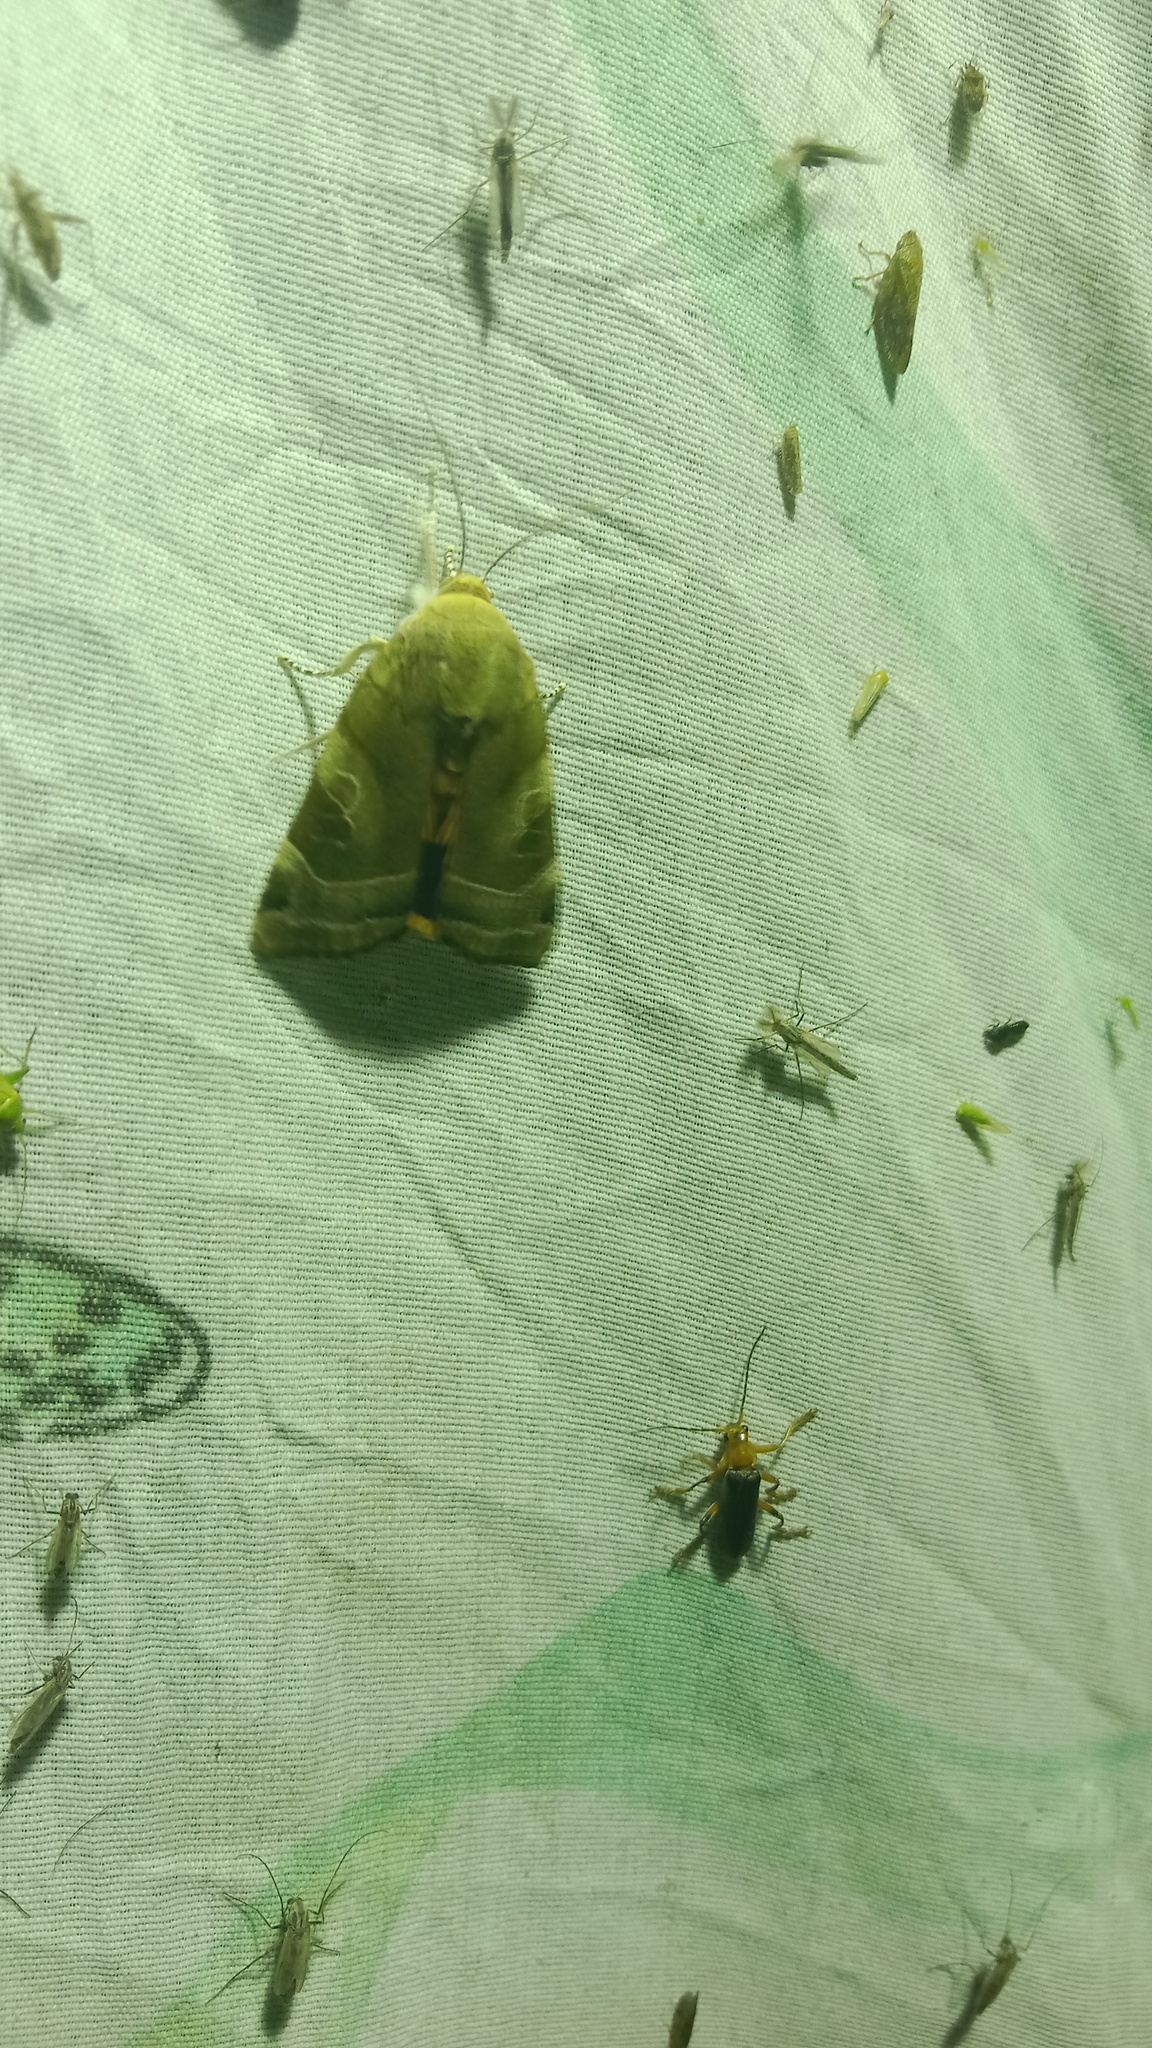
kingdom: Animalia
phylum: Arthropoda
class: Insecta
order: Lepidoptera
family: Noctuidae
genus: Noctua
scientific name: Noctua fimbriata
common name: Broad-bordered yellow underwing
